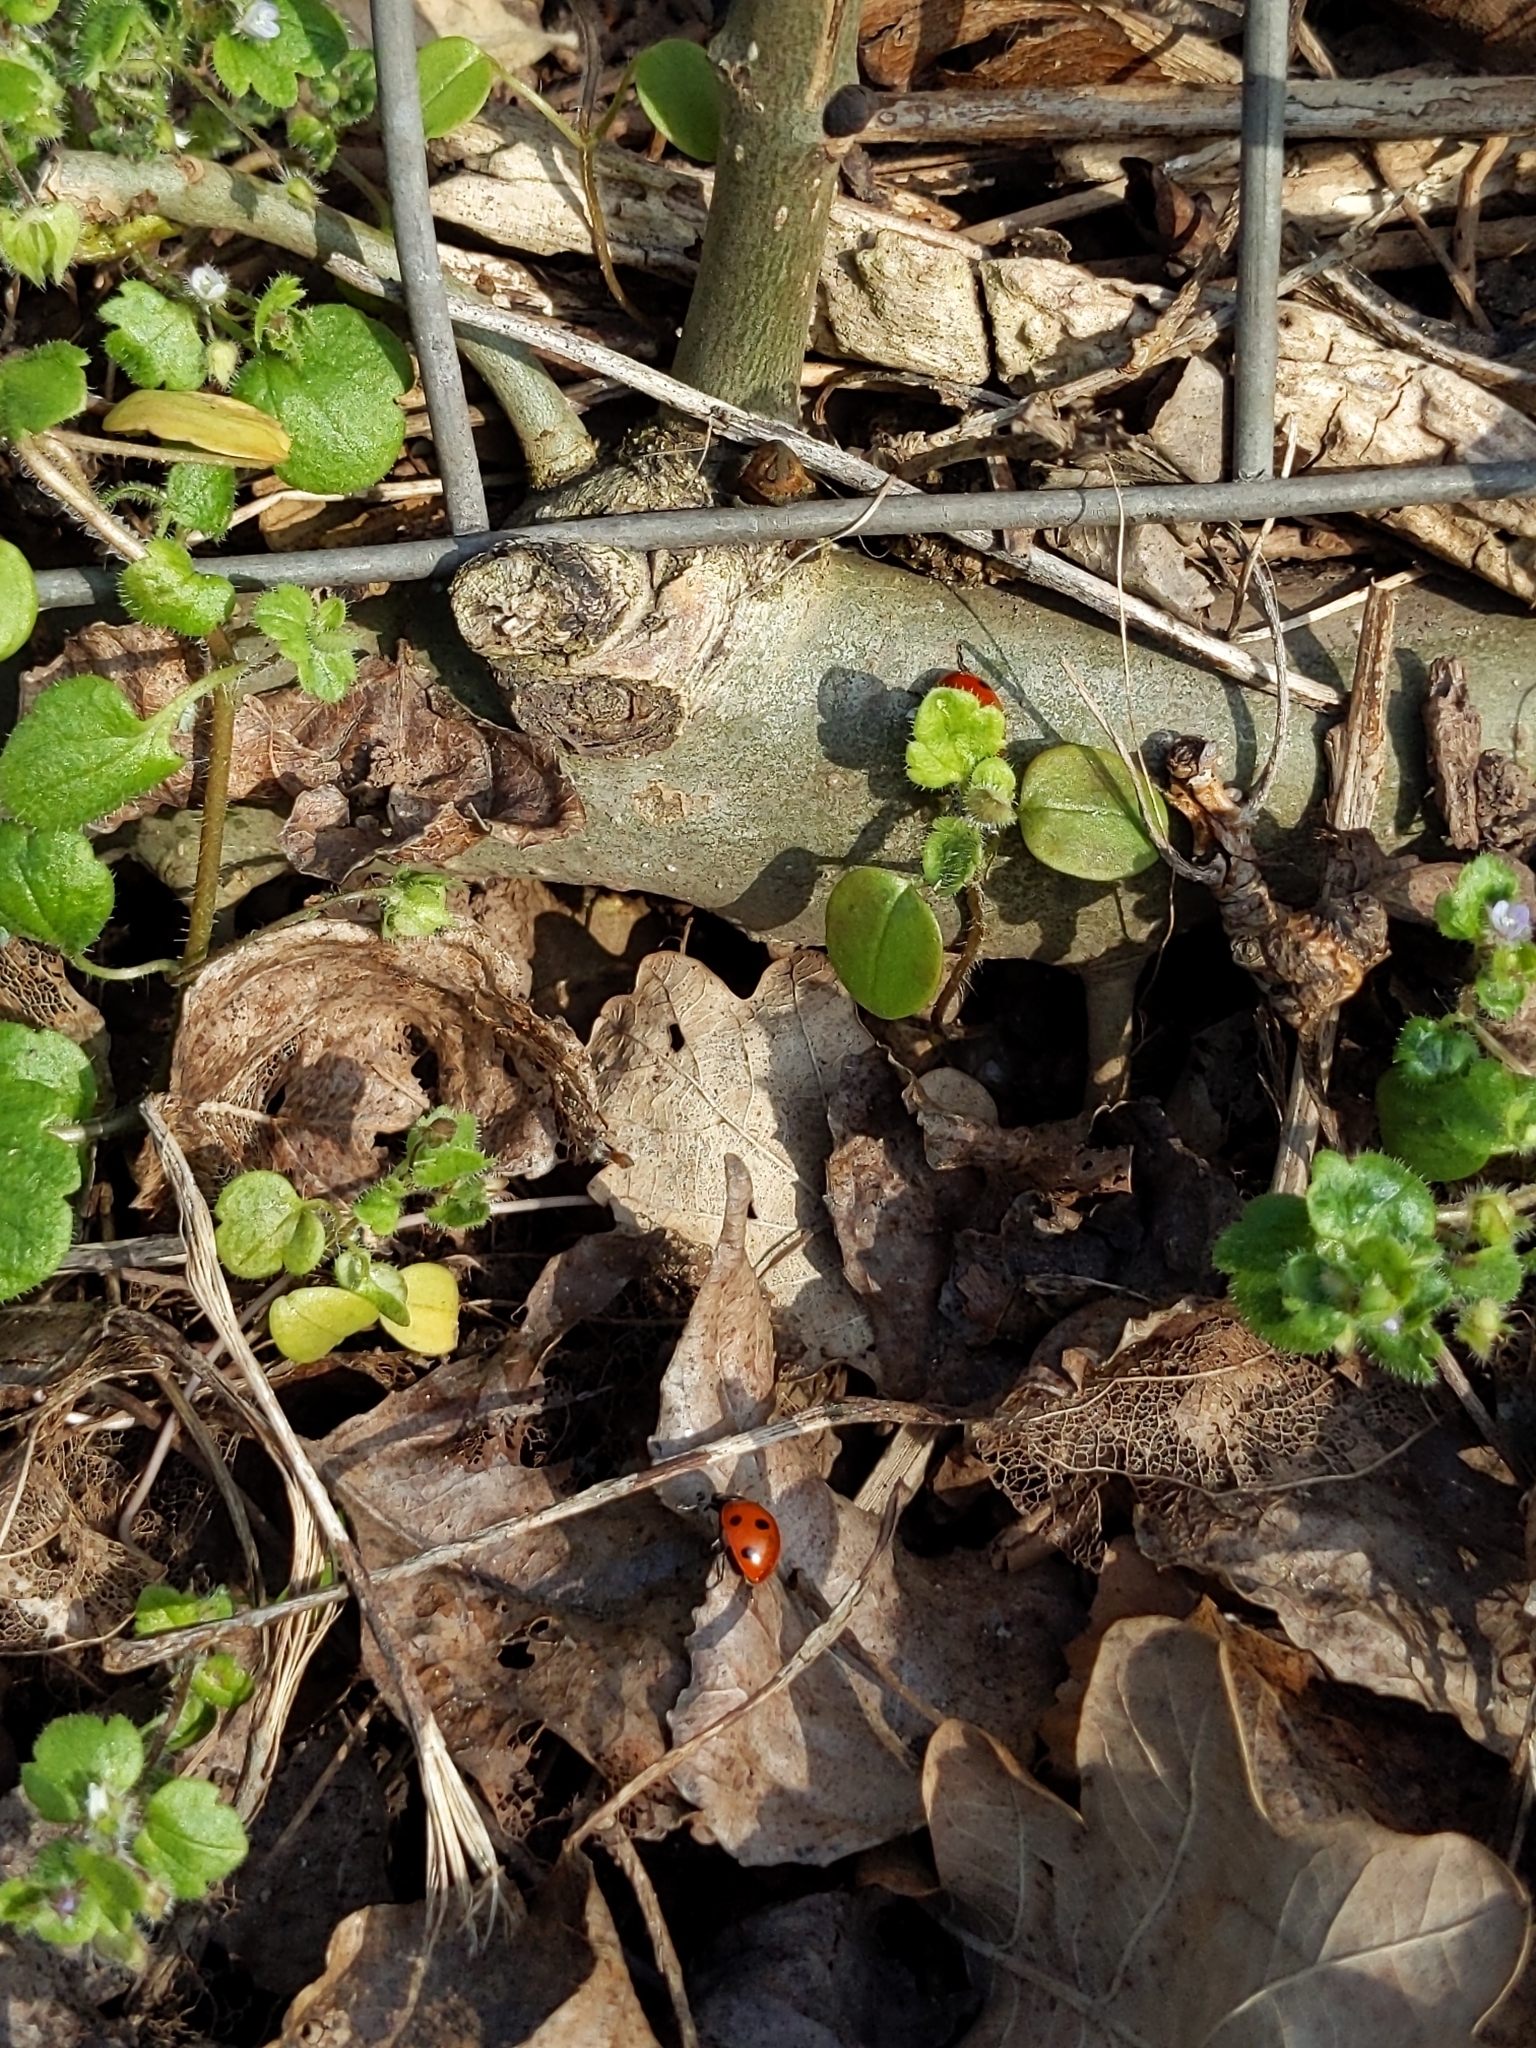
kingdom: Animalia
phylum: Arthropoda
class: Insecta
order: Coleoptera
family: Coccinellidae
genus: Coccinella
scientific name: Coccinella septempunctata
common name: Sevenspotted lady beetle
